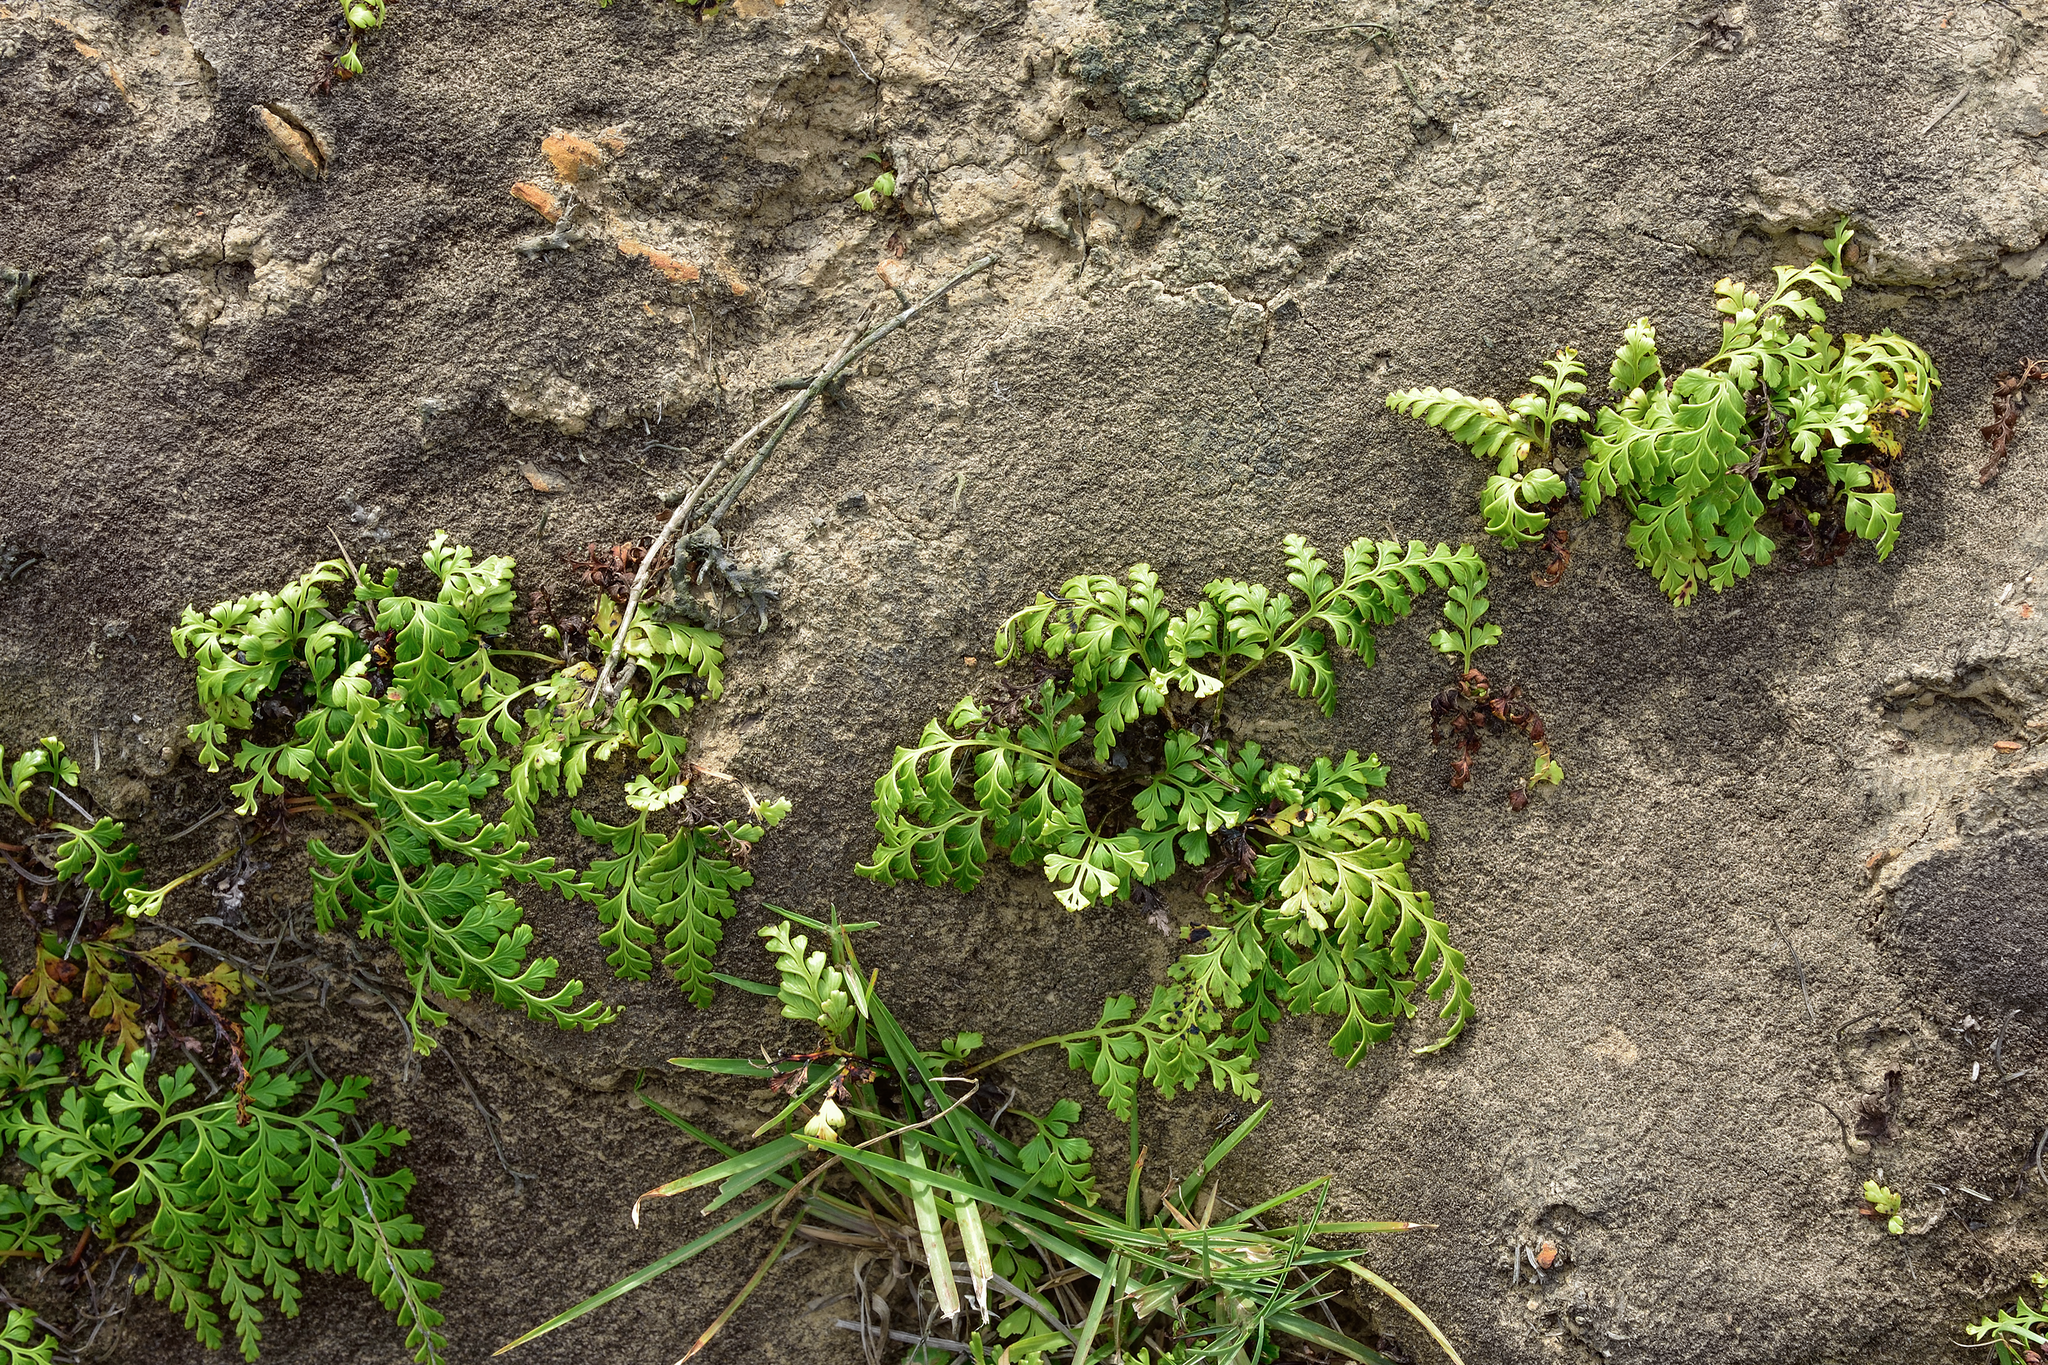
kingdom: Plantae
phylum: Tracheophyta
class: Polypodiopsida
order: Polypodiales
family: Lindsaeaceae
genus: Odontosoria
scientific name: Odontosoria biflora
